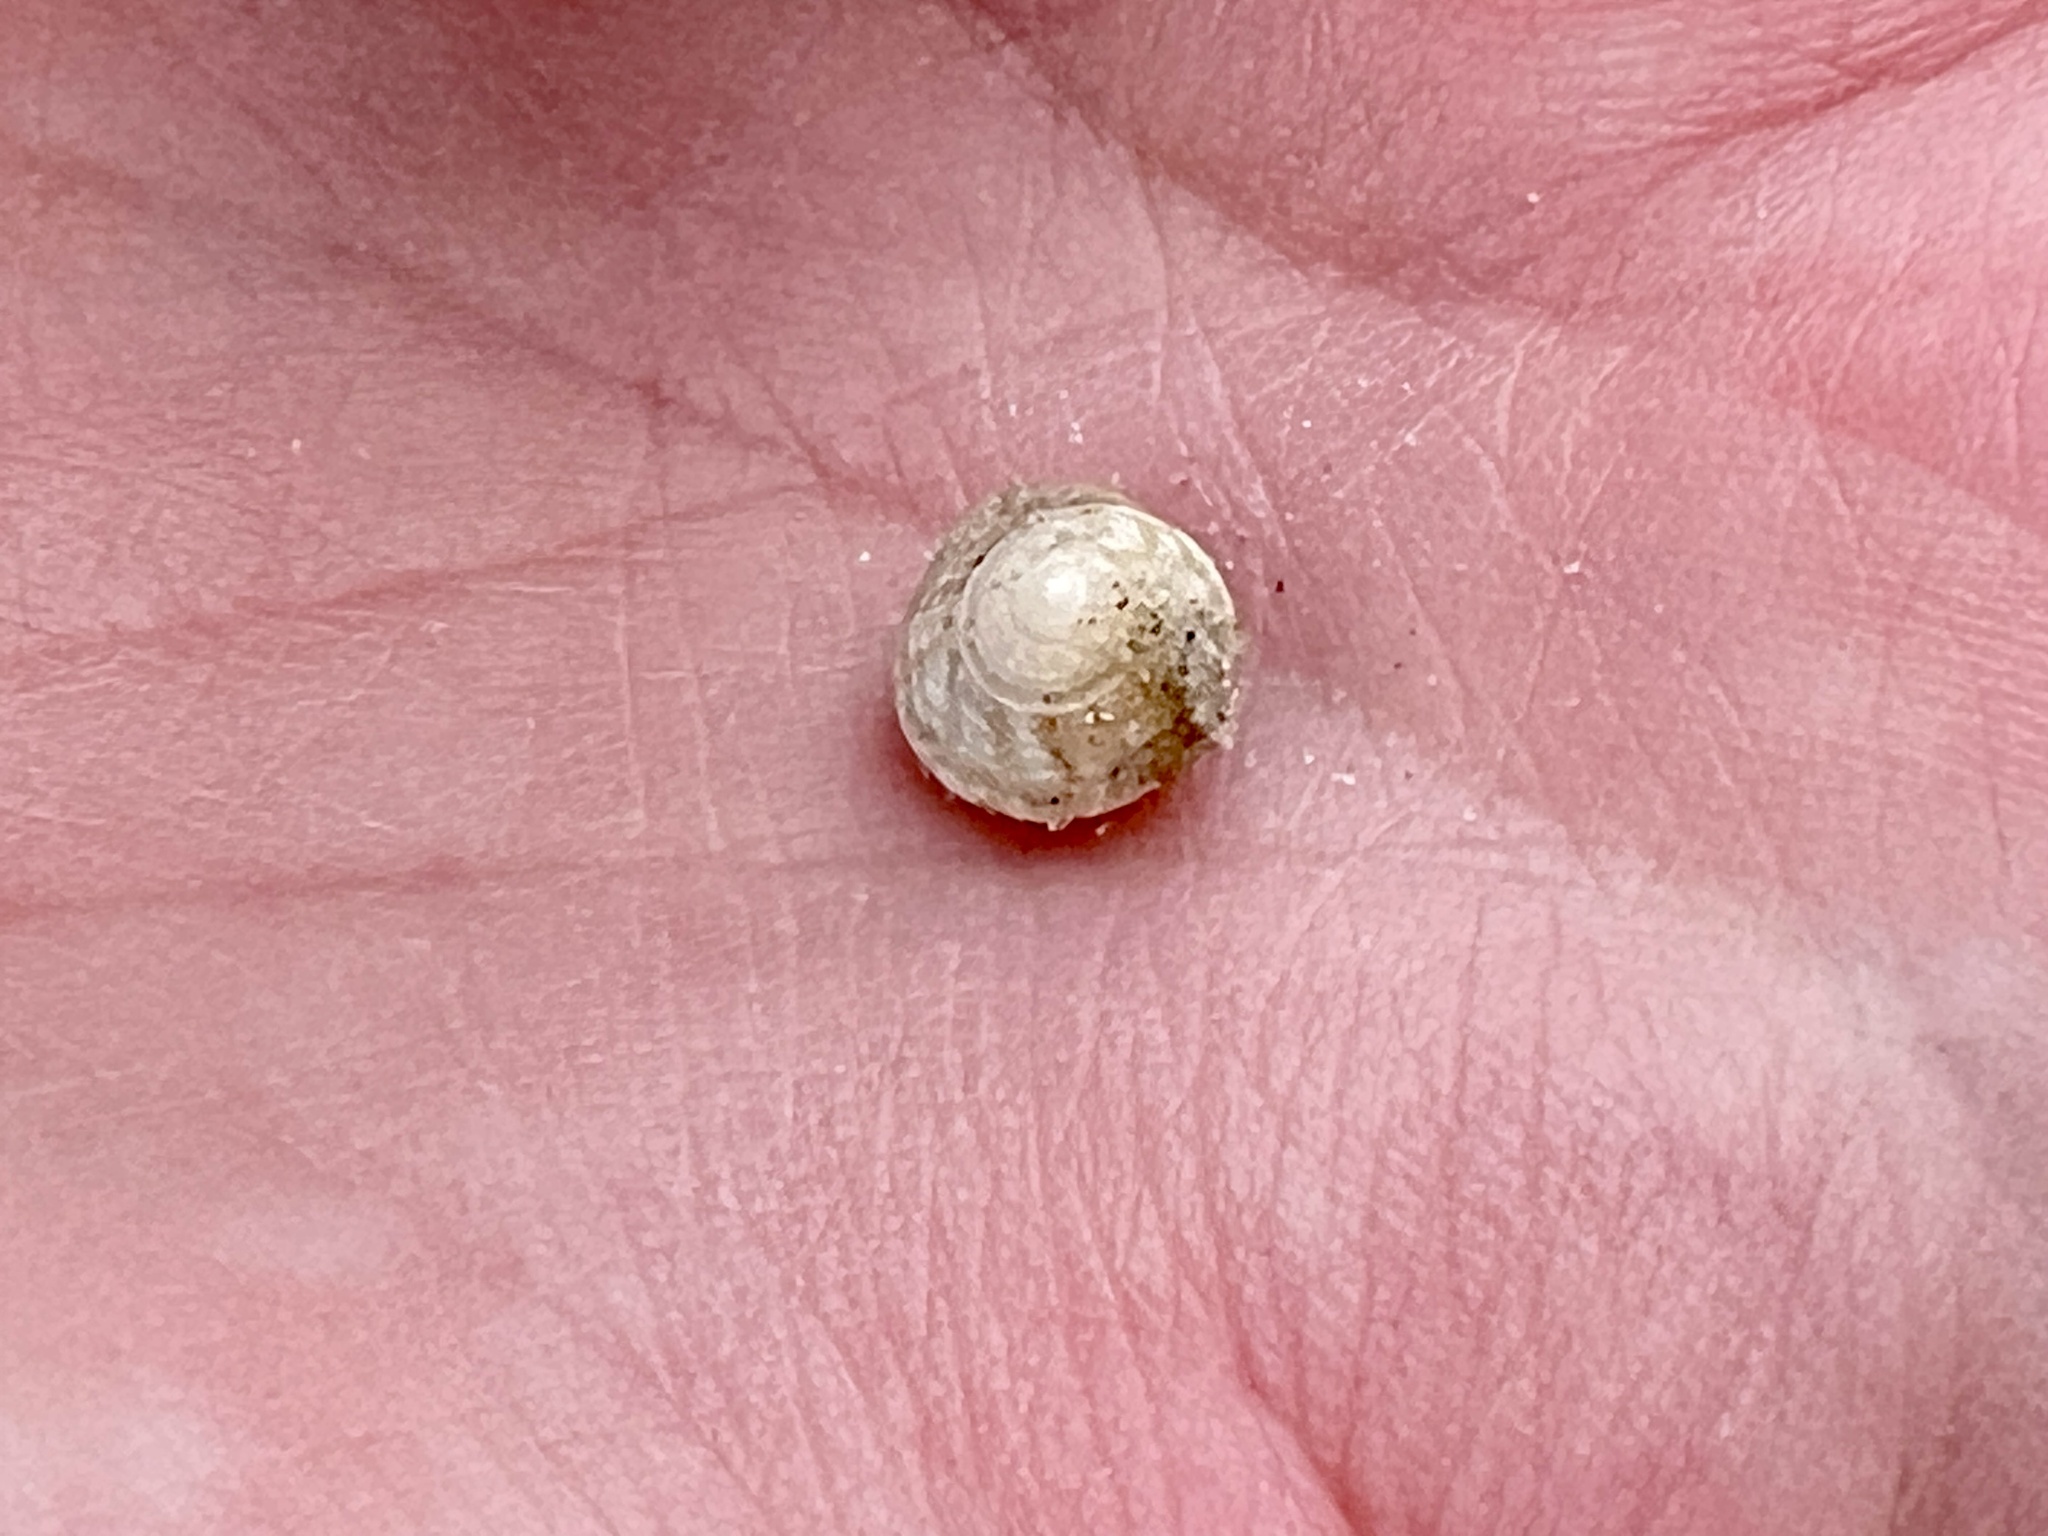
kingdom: Animalia
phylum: Mollusca
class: Gastropoda
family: Modulidae
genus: Modulus
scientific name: Modulus modulus
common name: Atlantic modulus
